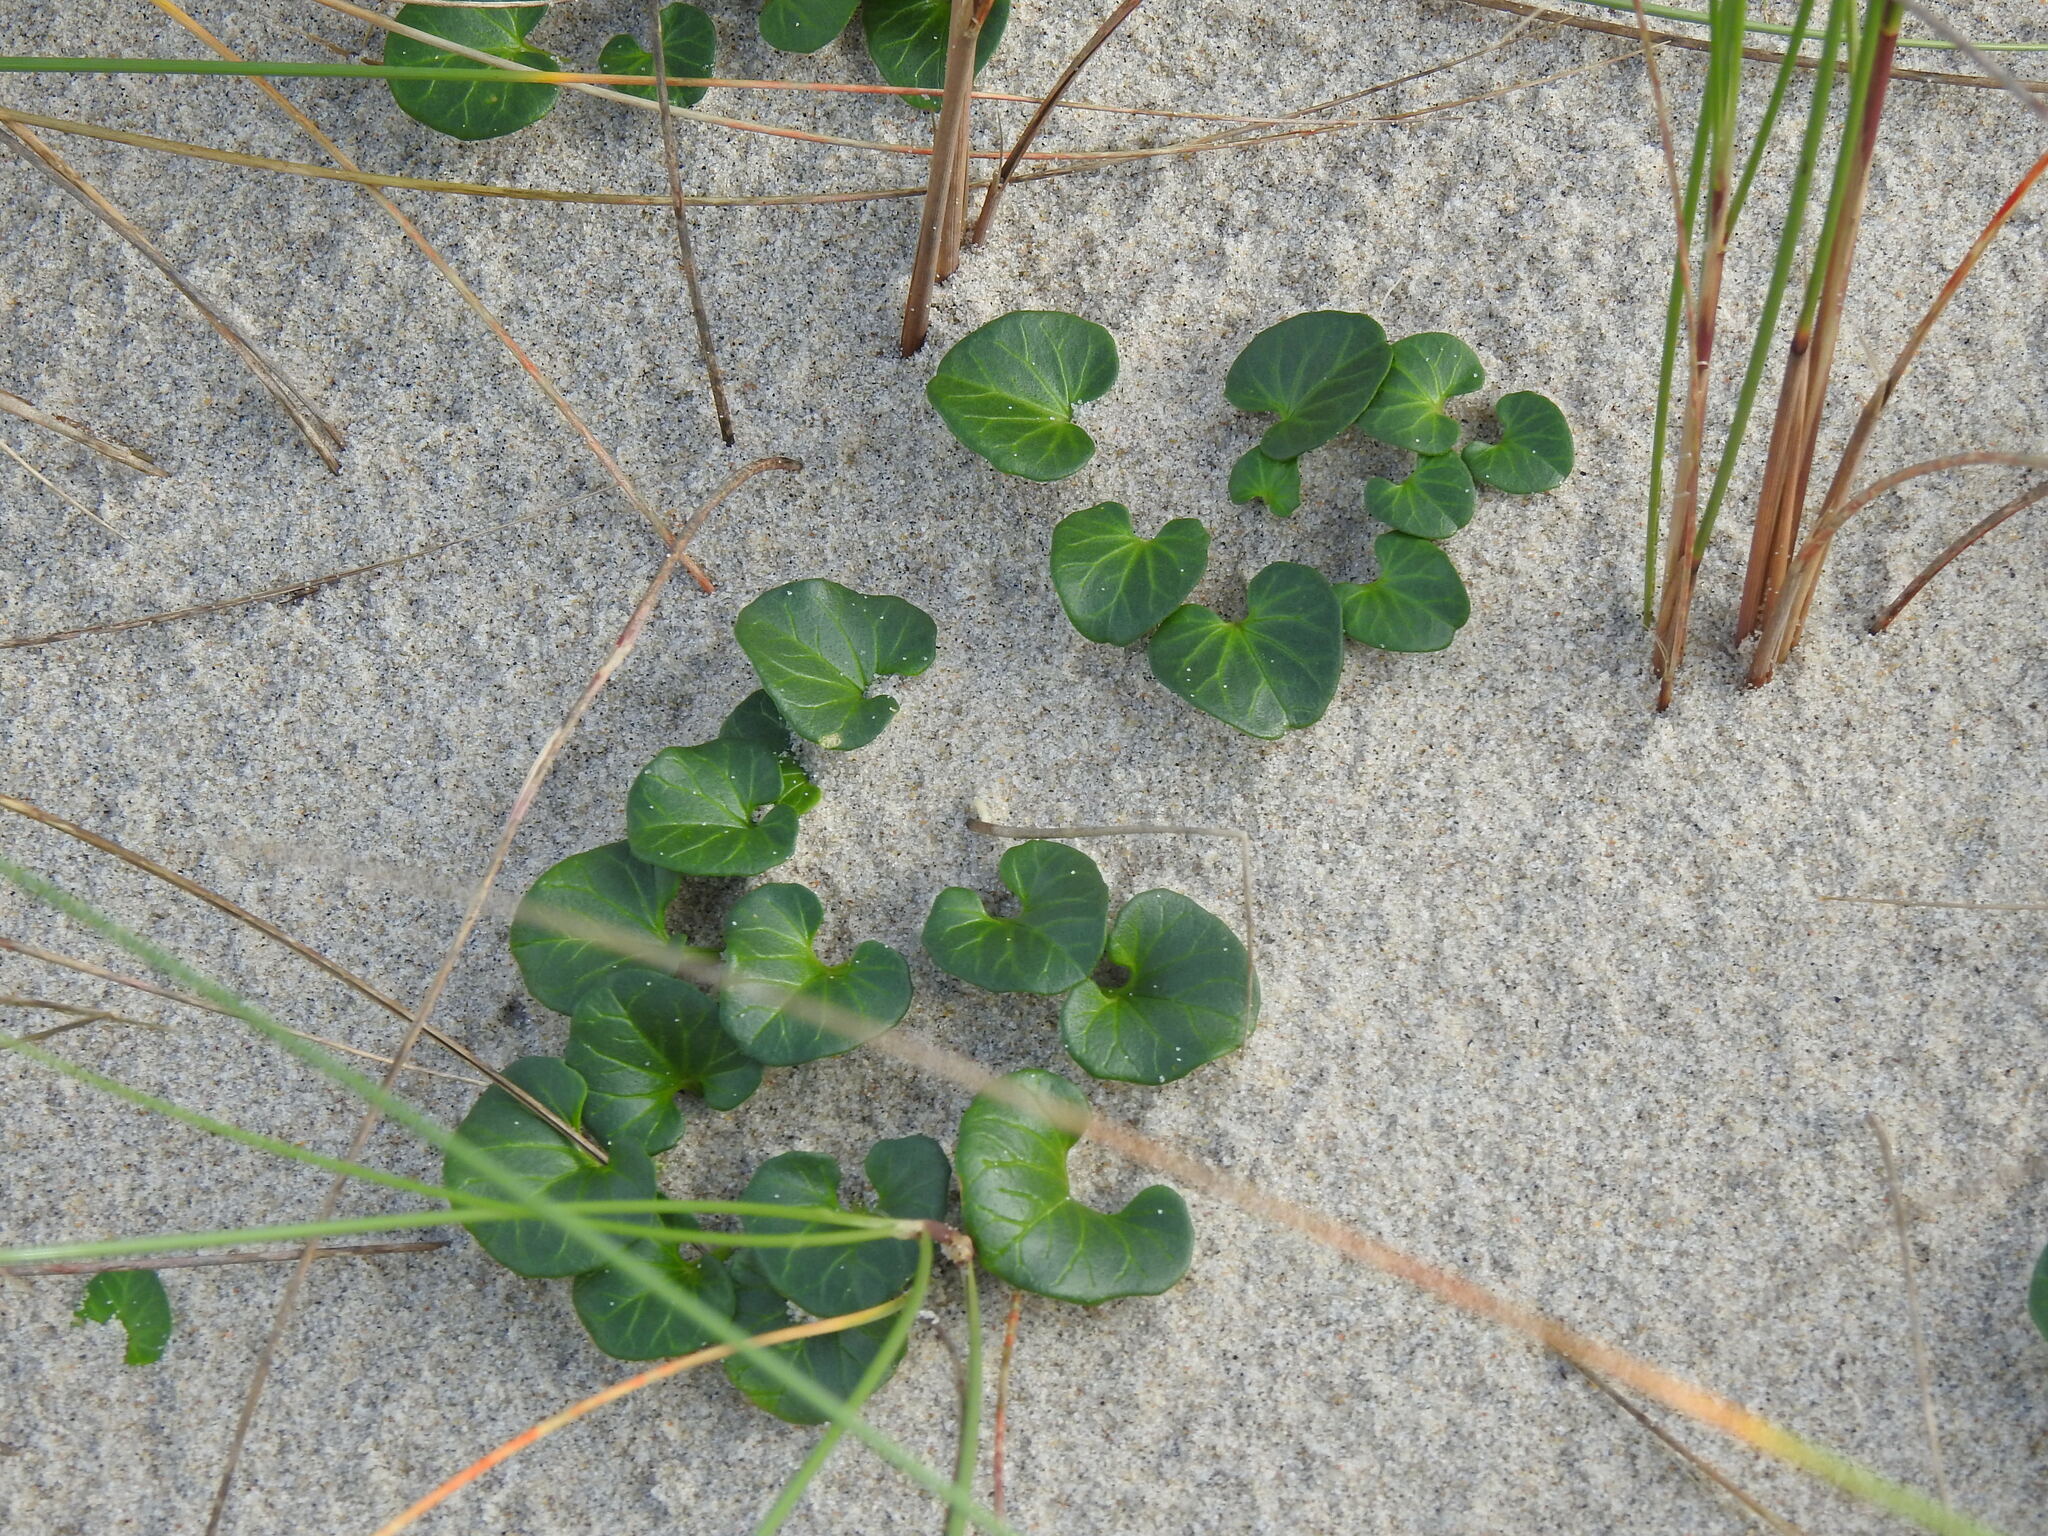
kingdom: Plantae
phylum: Tracheophyta
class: Magnoliopsida
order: Solanales
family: Convolvulaceae
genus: Calystegia
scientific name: Calystegia soldanella
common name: Sea bindweed
